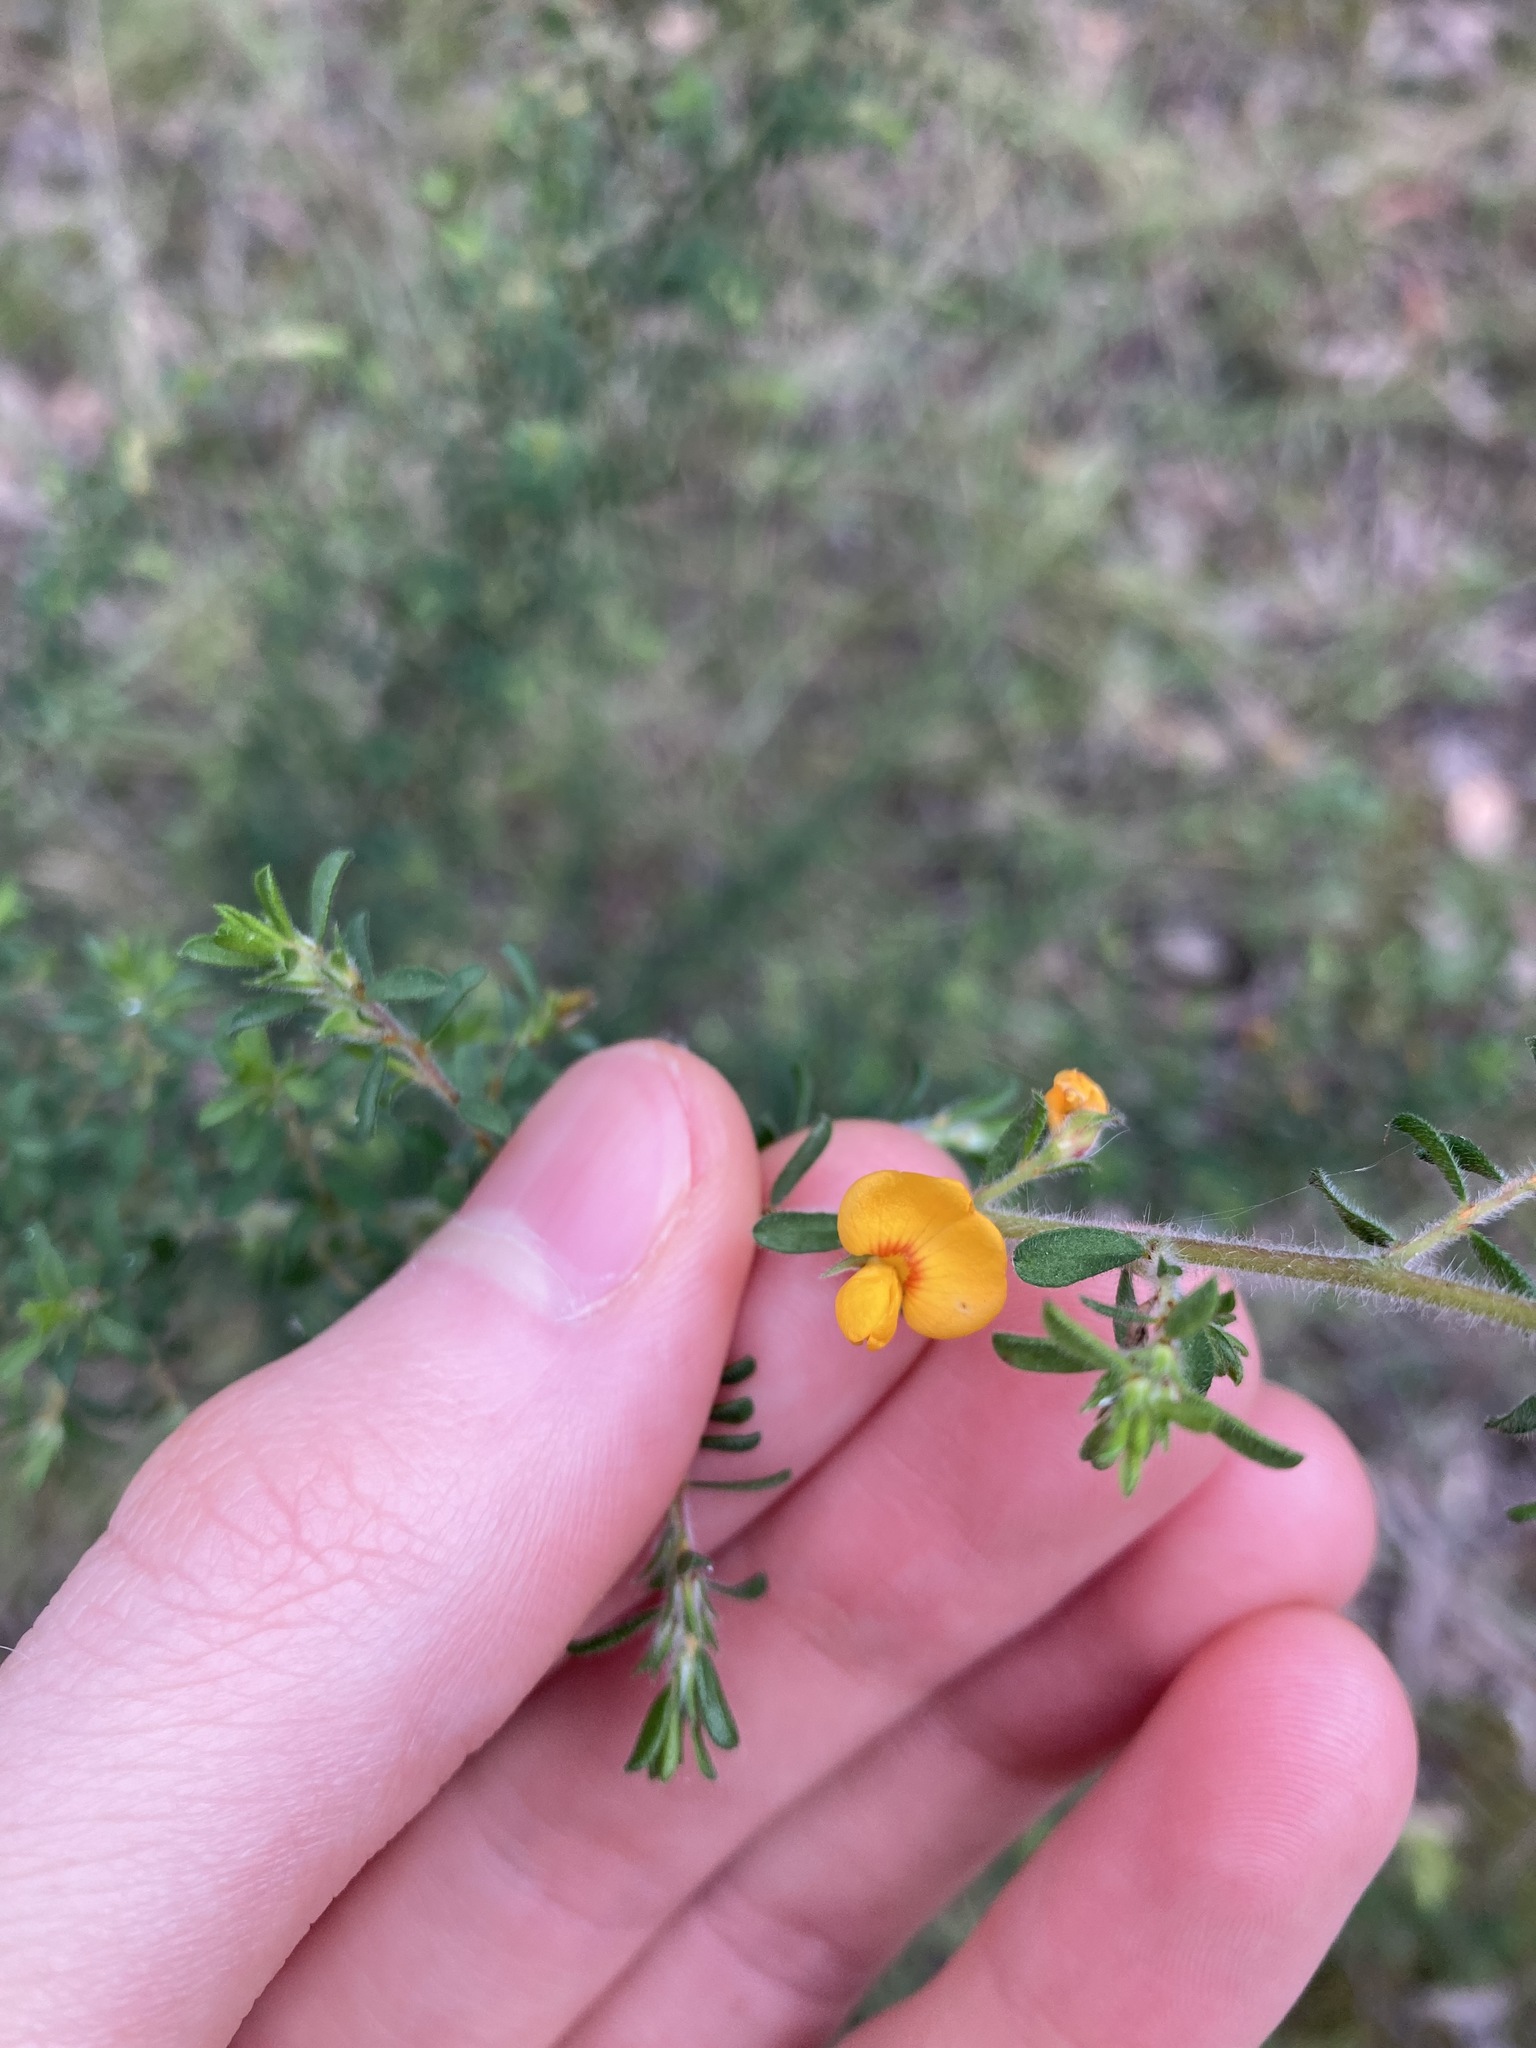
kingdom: Plantae
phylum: Tracheophyta
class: Magnoliopsida
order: Fabales
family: Fabaceae
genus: Pultenaea
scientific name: Pultenaea villosa
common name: Bronze bush-pea
